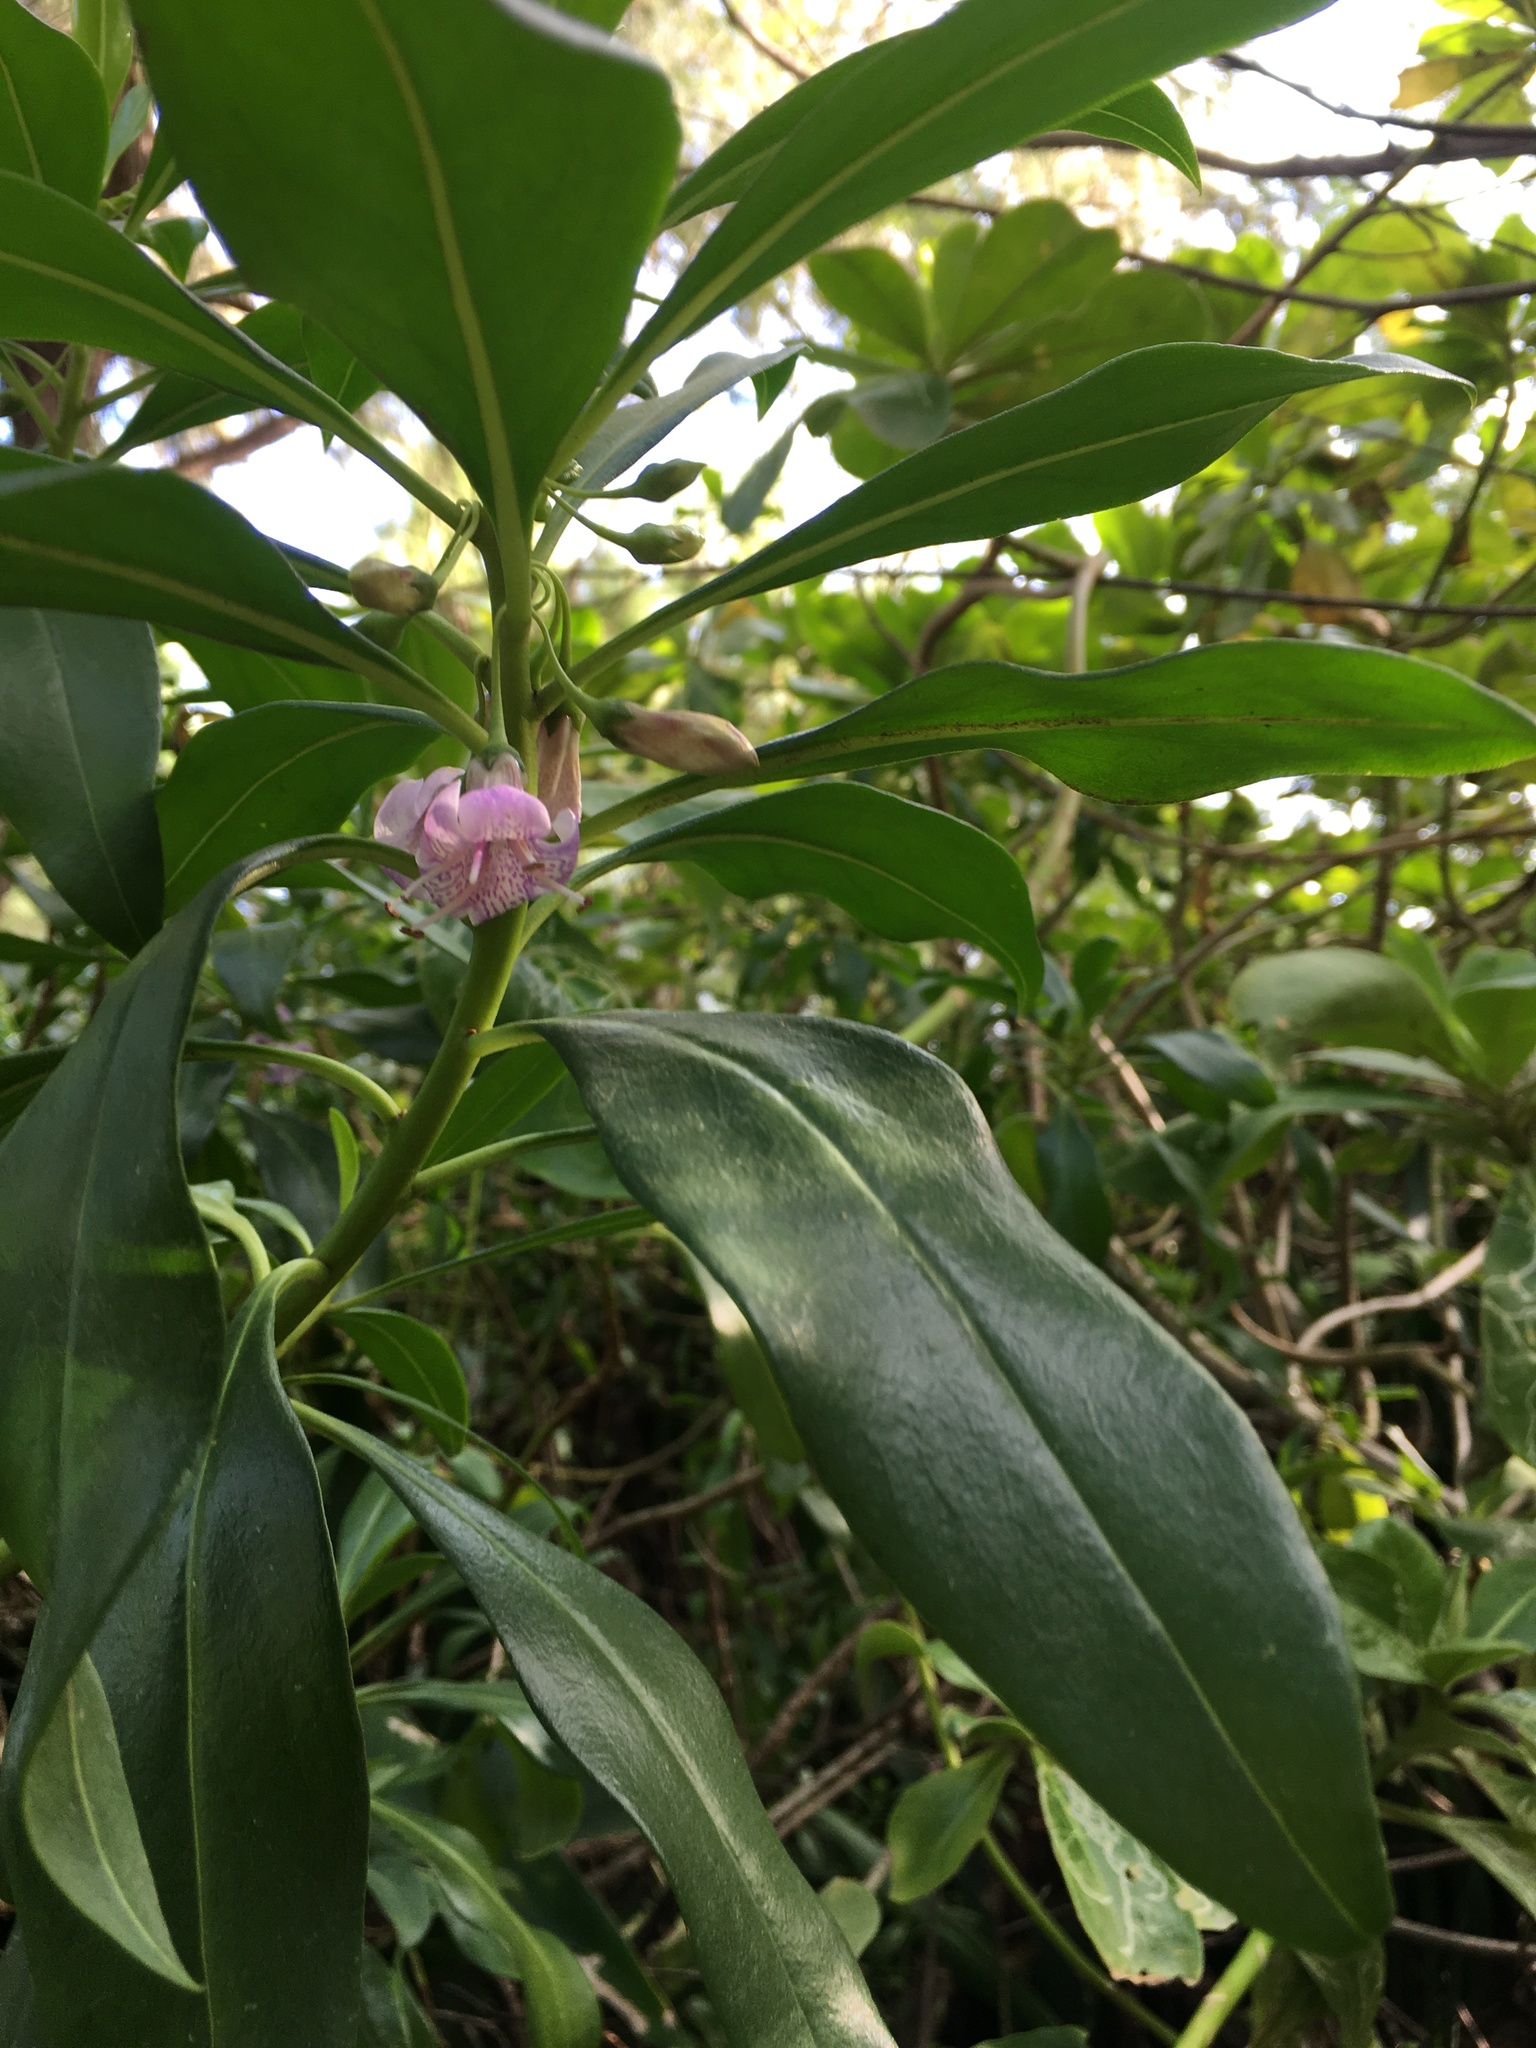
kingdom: Plantae
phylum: Tracheophyta
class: Magnoliopsida
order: Lamiales
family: Scrophulariaceae
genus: Myoporum
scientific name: Myoporum bontioides
